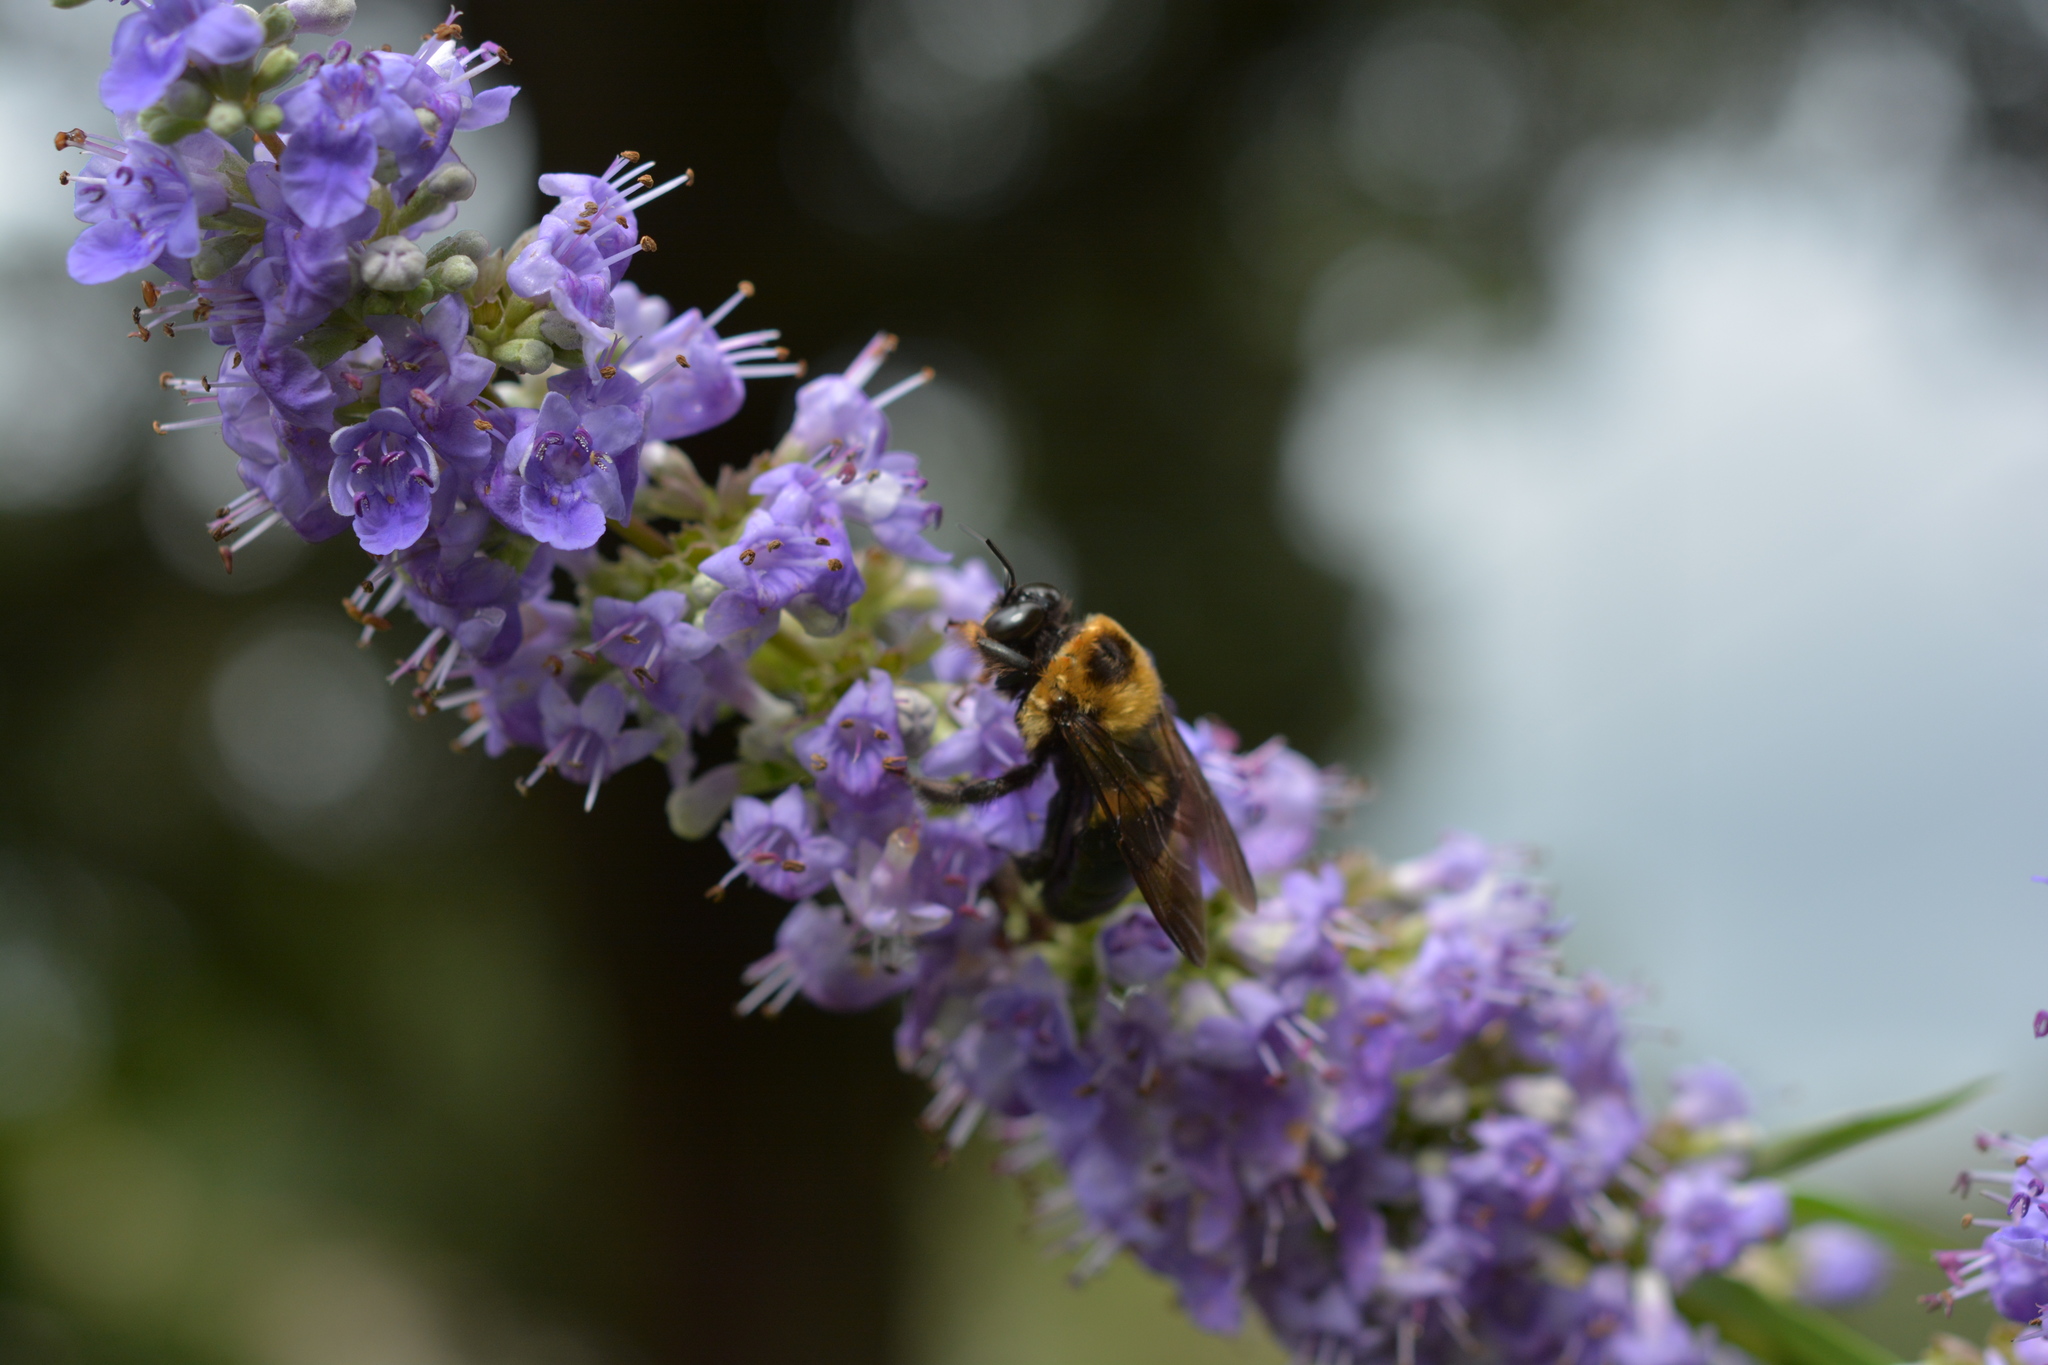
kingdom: Animalia
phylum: Arthropoda
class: Insecta
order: Hymenoptera
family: Apidae
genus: Xylocopa
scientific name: Xylocopa virginica
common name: Carpenter bee
